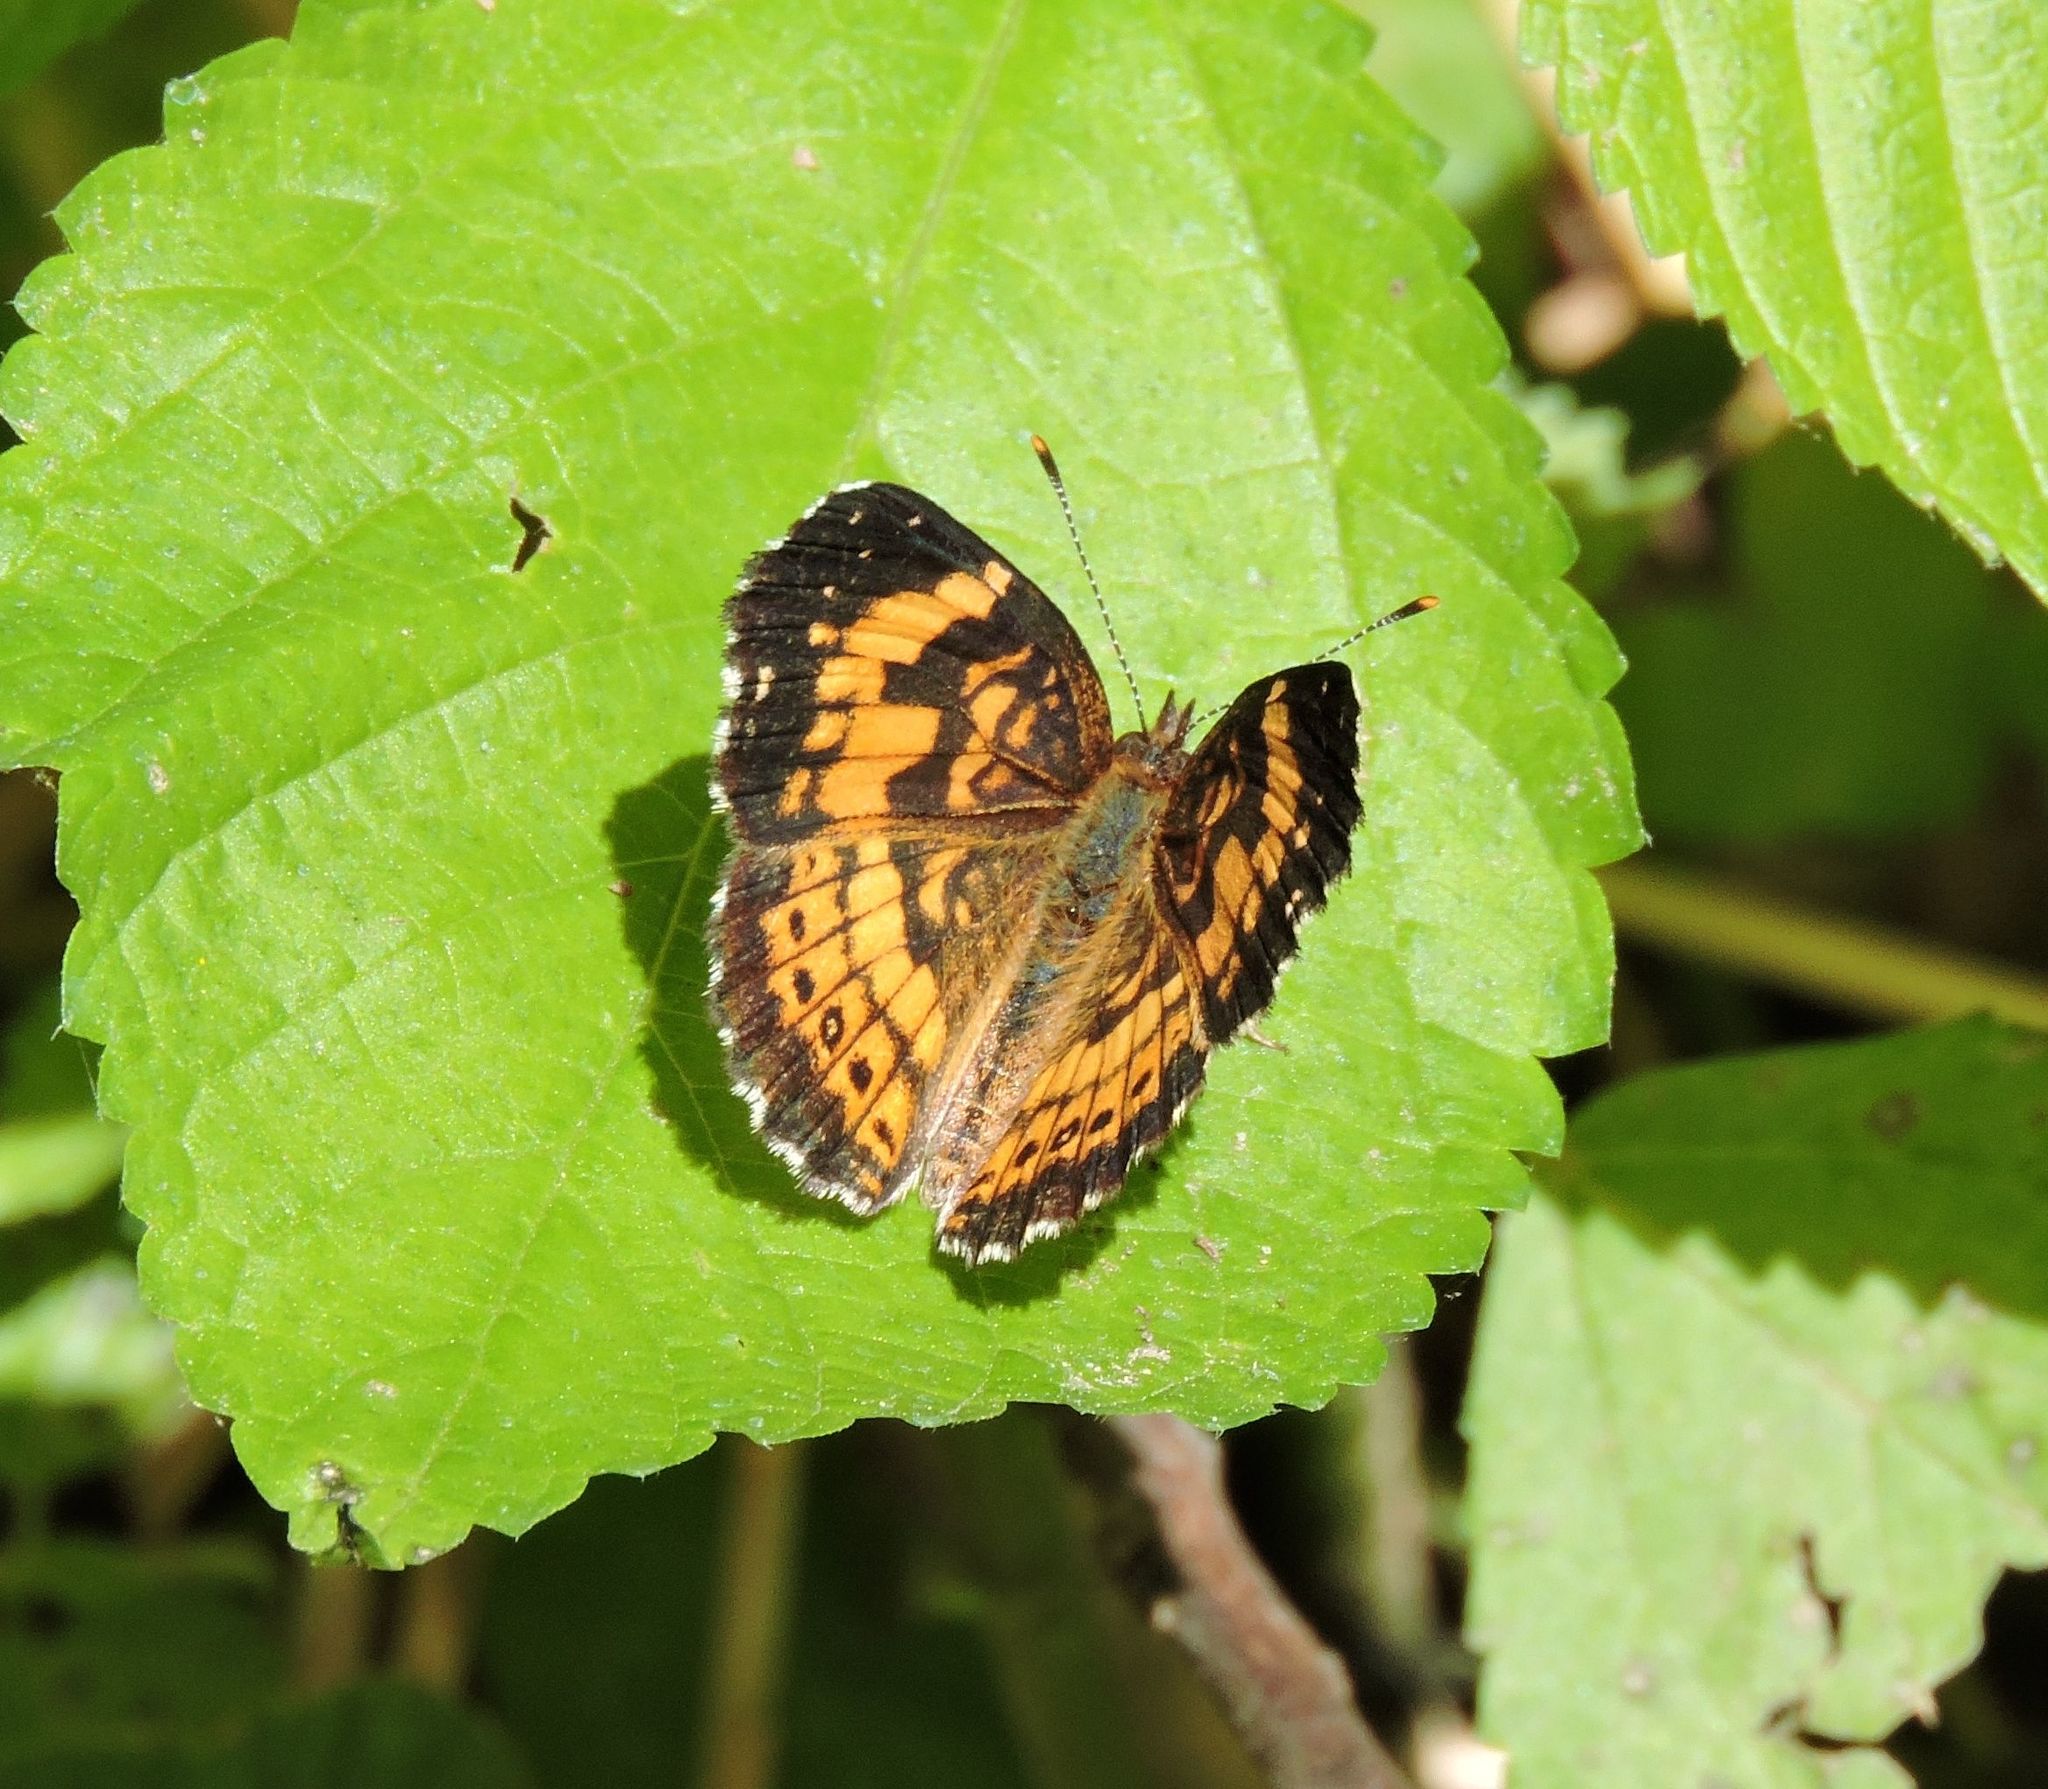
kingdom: Animalia
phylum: Arthropoda
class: Insecta
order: Lepidoptera
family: Nymphalidae
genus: Chlosyne
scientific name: Chlosyne nycteis
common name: Silvery checkerspot
